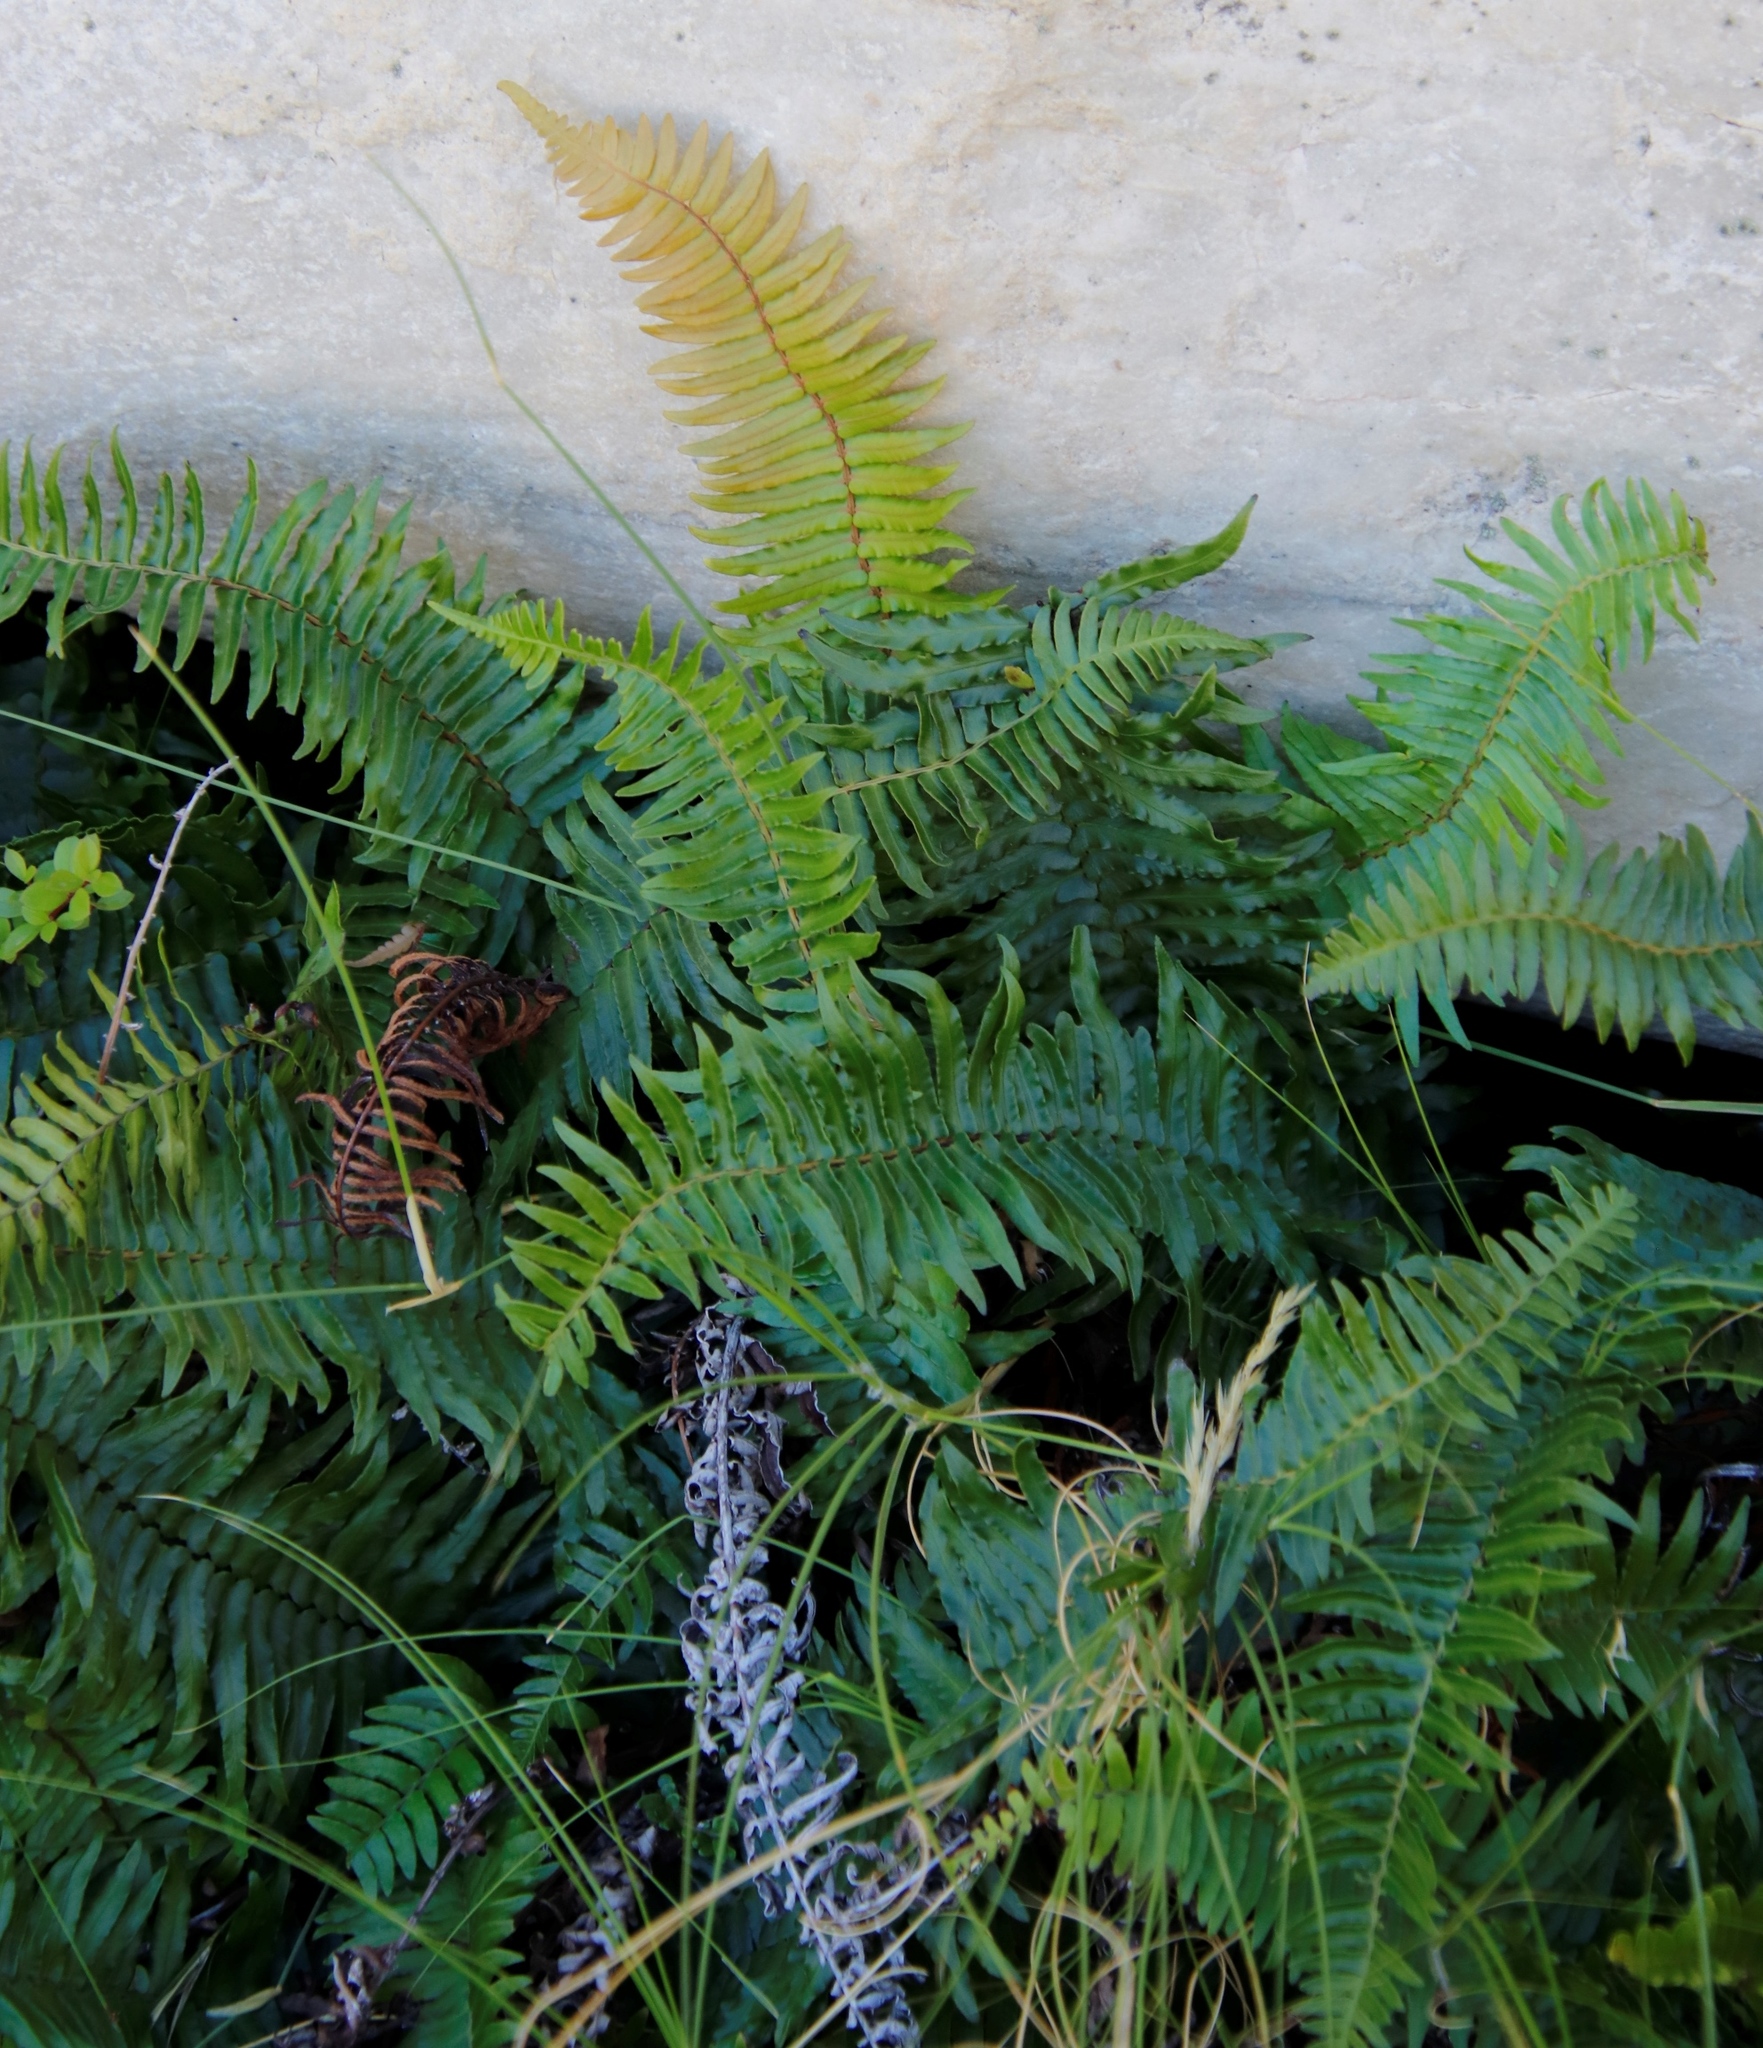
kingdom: Plantae
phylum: Tracheophyta
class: Polypodiopsida
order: Polypodiales
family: Blechnaceae
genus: Blechnum
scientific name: Blechnum punctulatum
